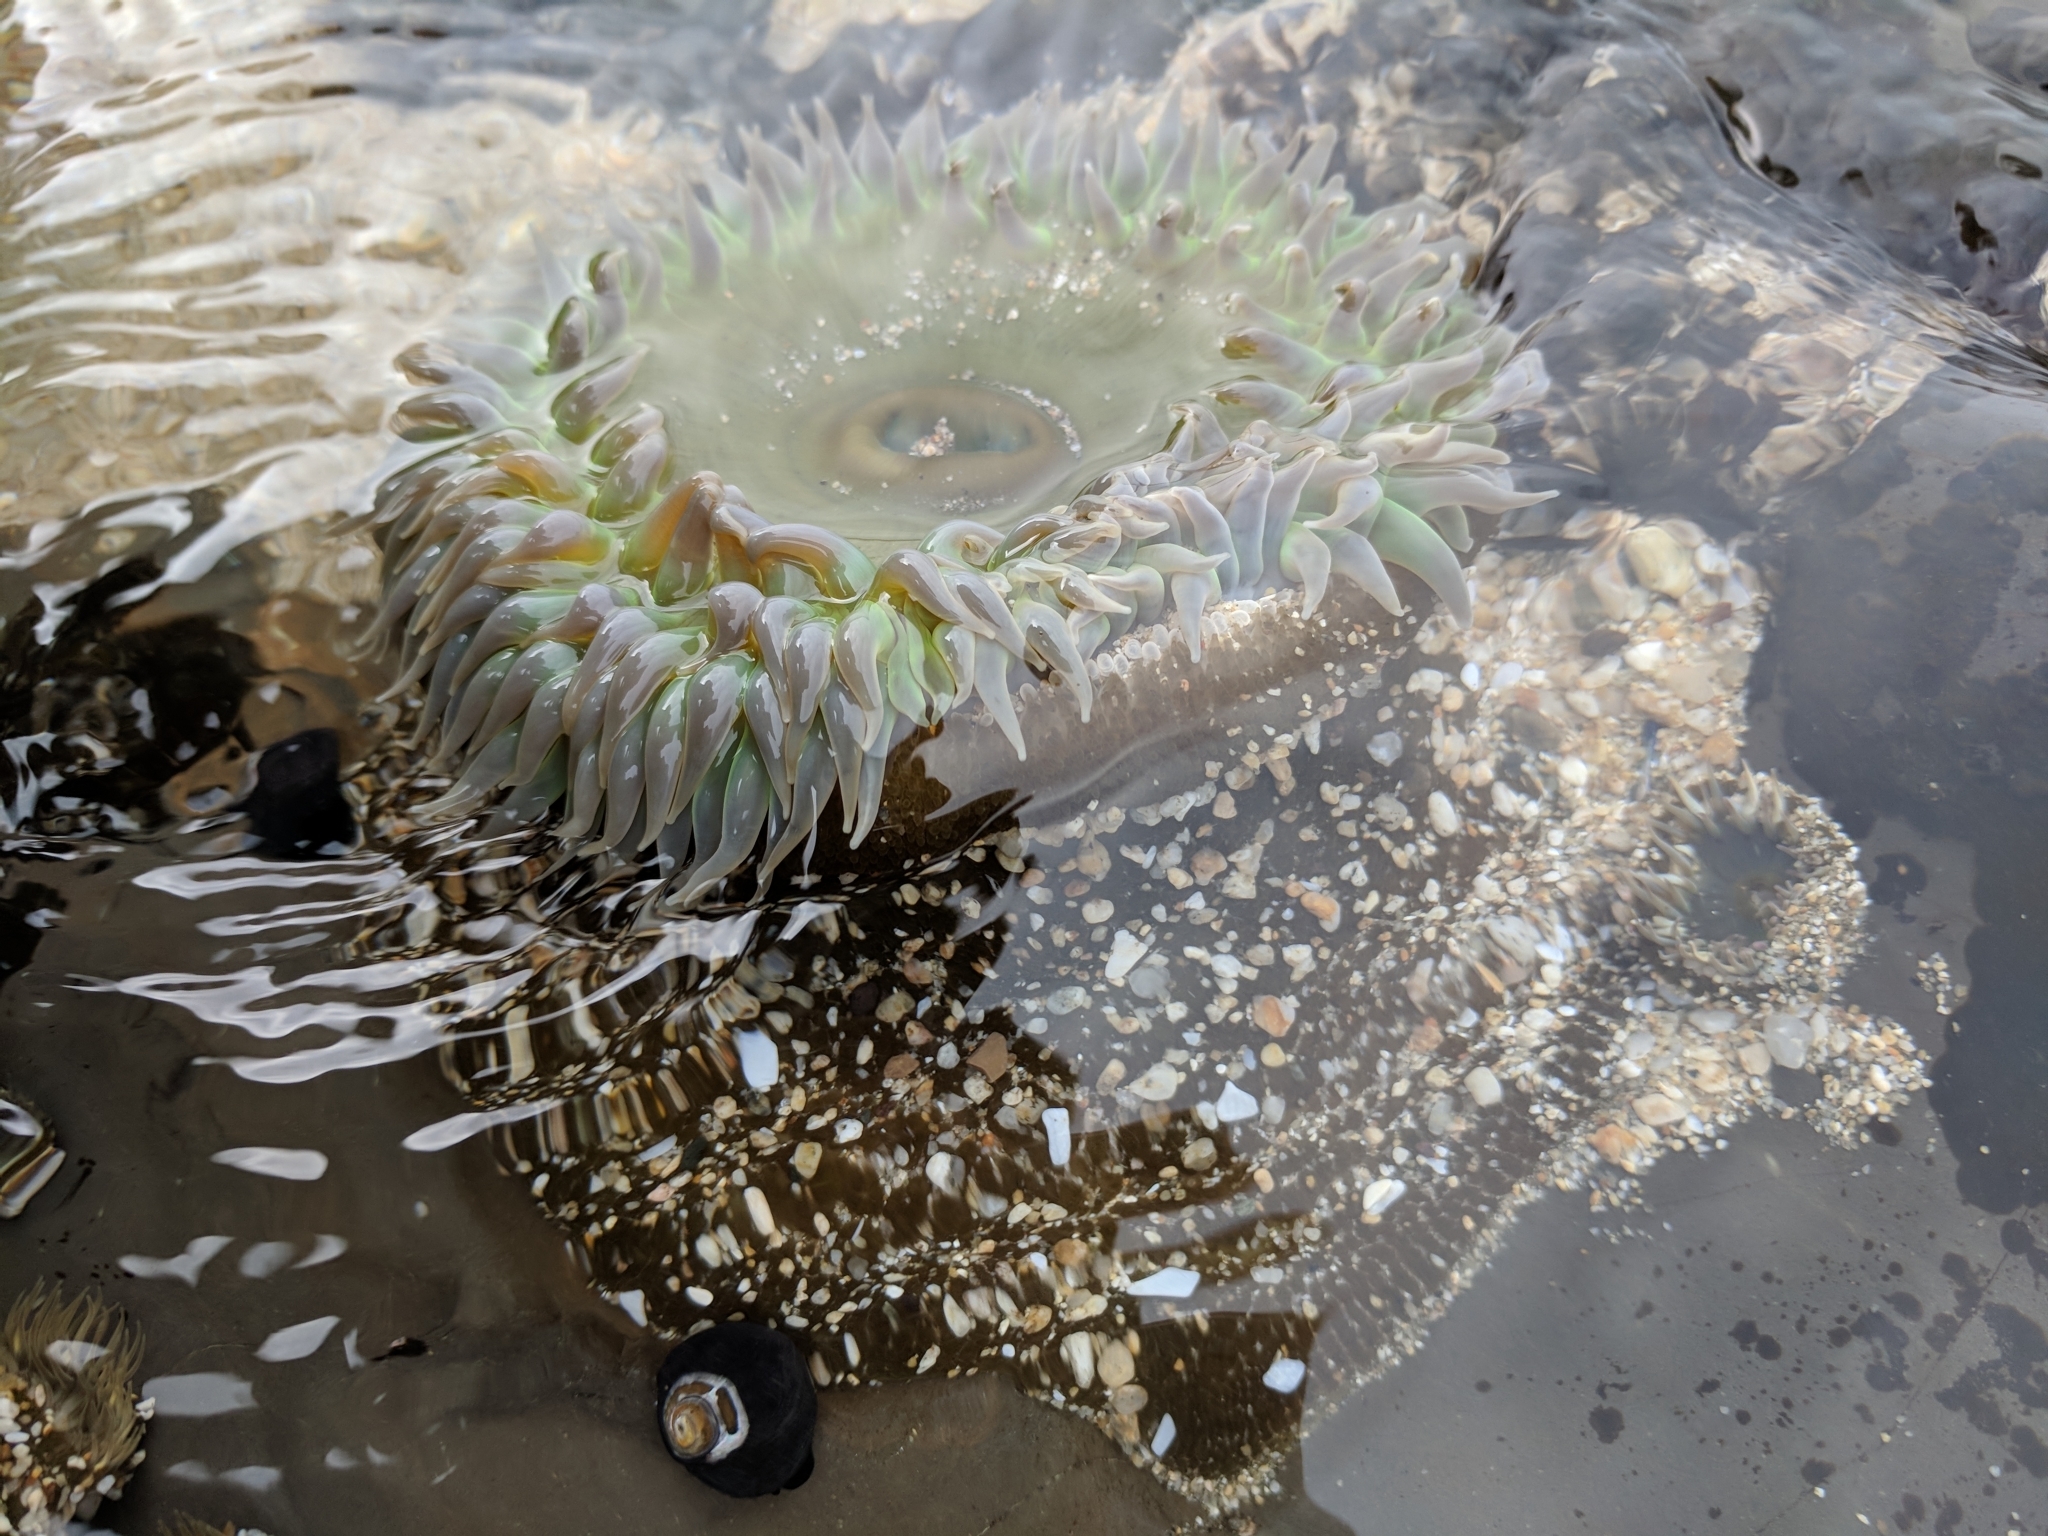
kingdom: Animalia
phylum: Cnidaria
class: Anthozoa
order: Actiniaria
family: Actiniidae
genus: Anthopleura
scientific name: Anthopleura xanthogrammica
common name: Giant green anemone
